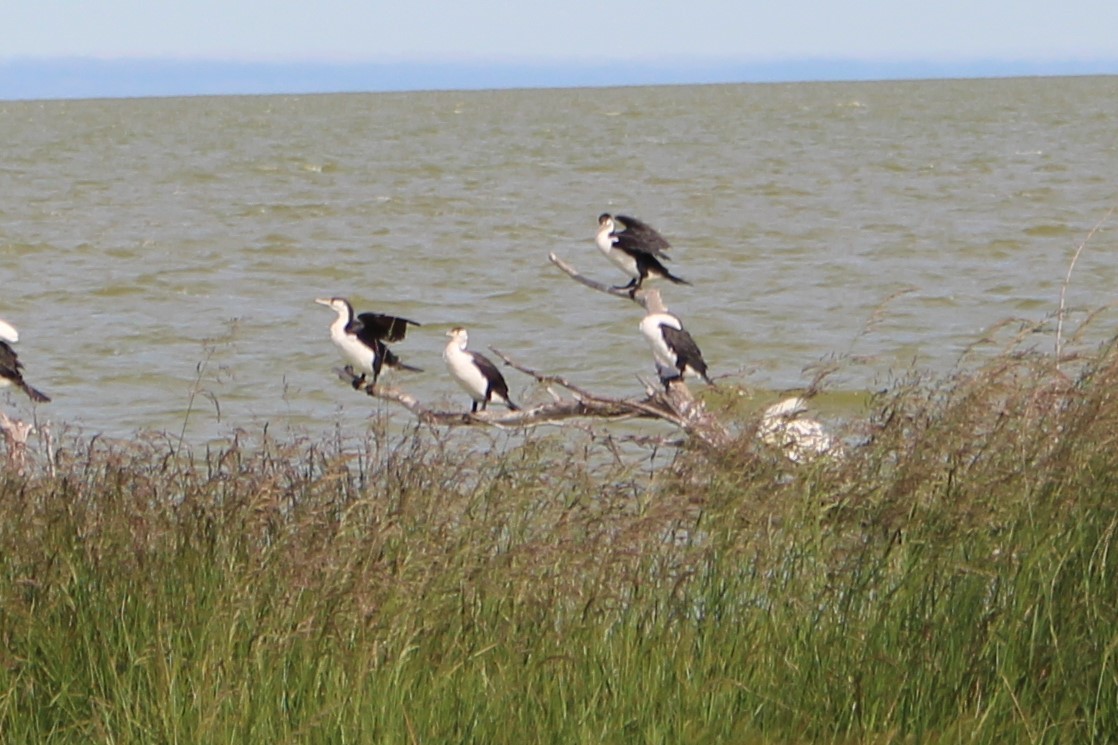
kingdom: Animalia
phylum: Chordata
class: Aves
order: Suliformes
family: Phalacrocoracidae
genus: Phalacrocorax
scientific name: Phalacrocorax varius
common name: Pied cormorant
